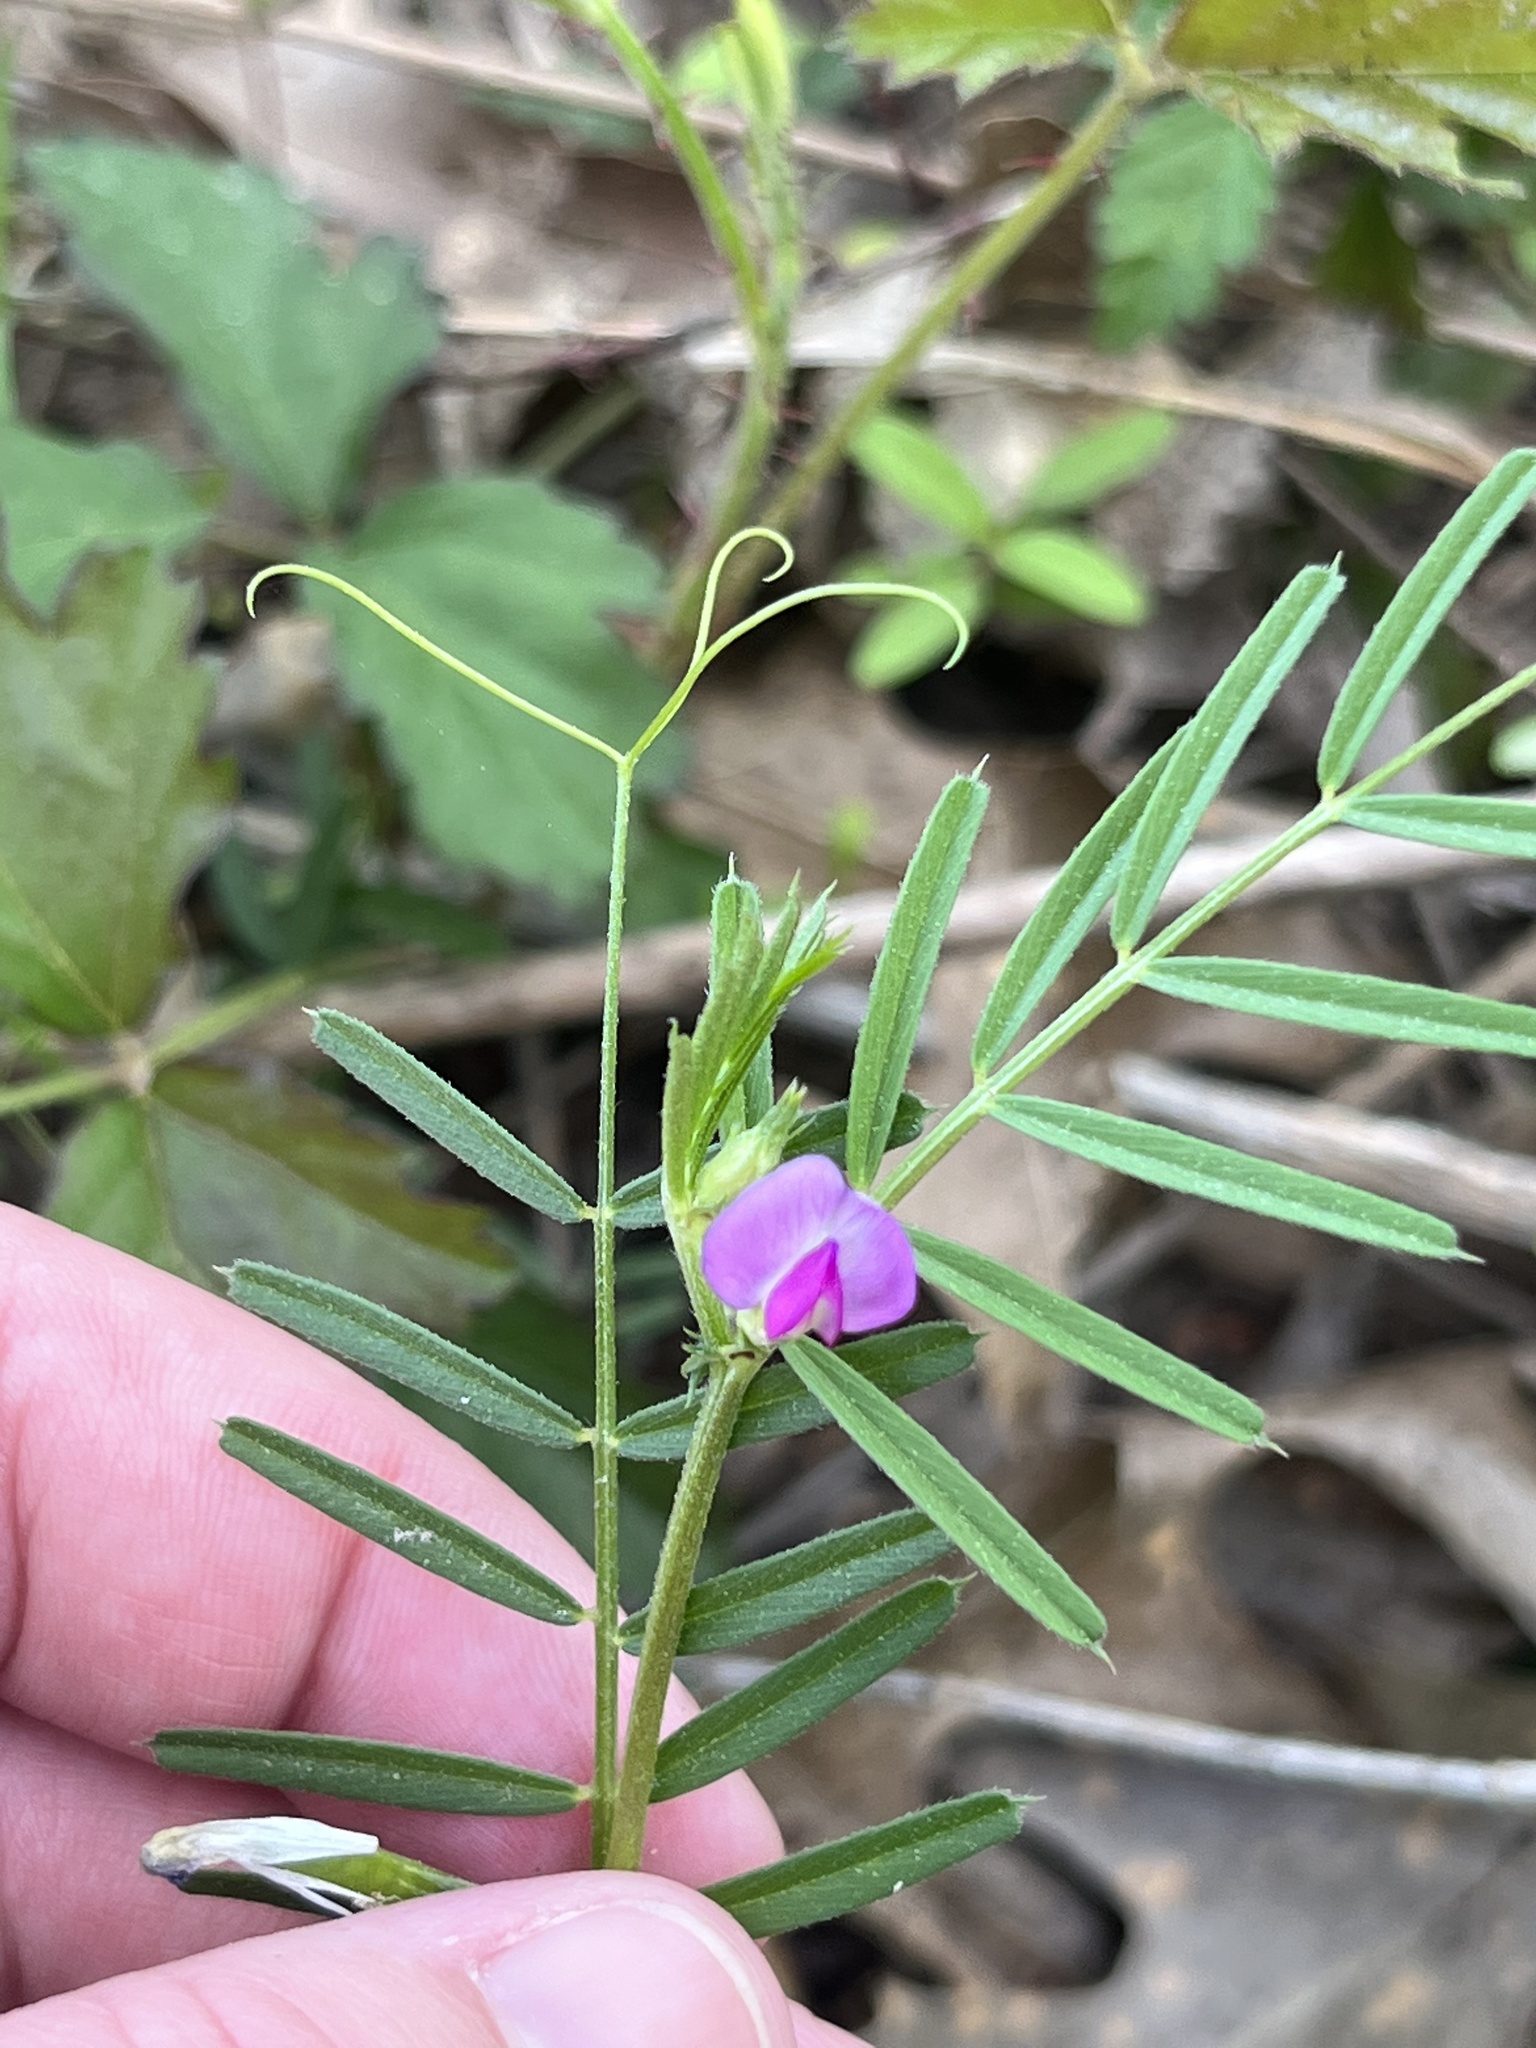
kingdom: Plantae
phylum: Tracheophyta
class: Magnoliopsida
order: Fabales
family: Fabaceae
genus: Vicia
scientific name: Vicia sativa
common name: Garden vetch
